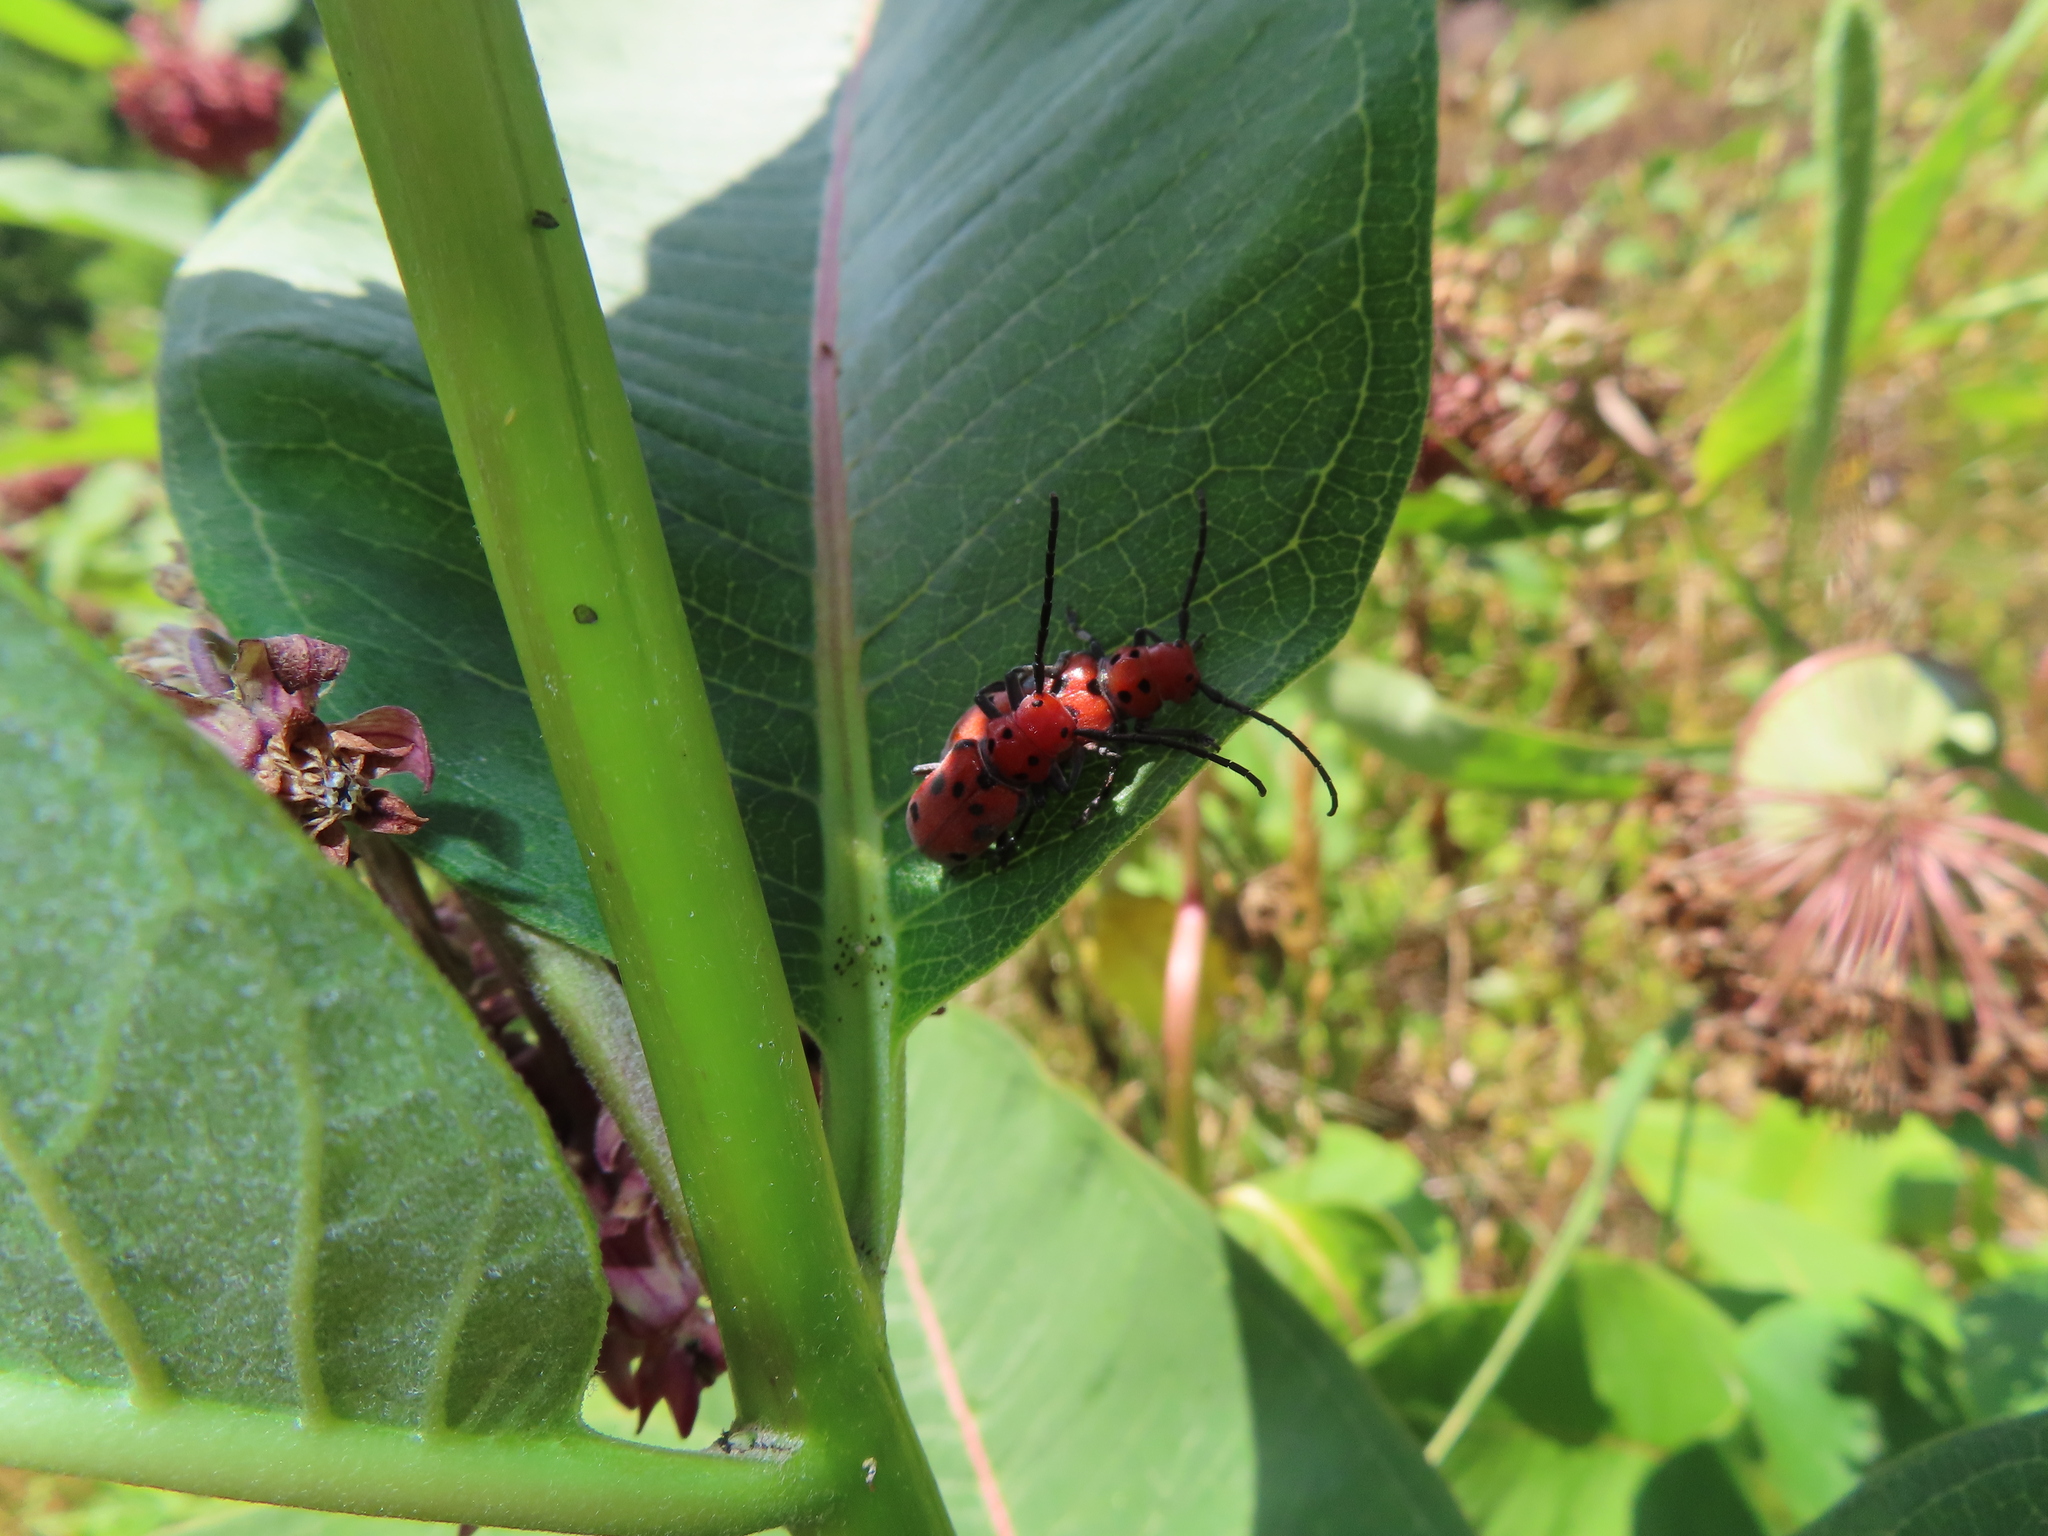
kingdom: Animalia
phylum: Arthropoda
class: Insecta
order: Coleoptera
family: Cerambycidae
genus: Tetraopes
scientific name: Tetraopes tetrophthalmus
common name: Red milkweed beetle
